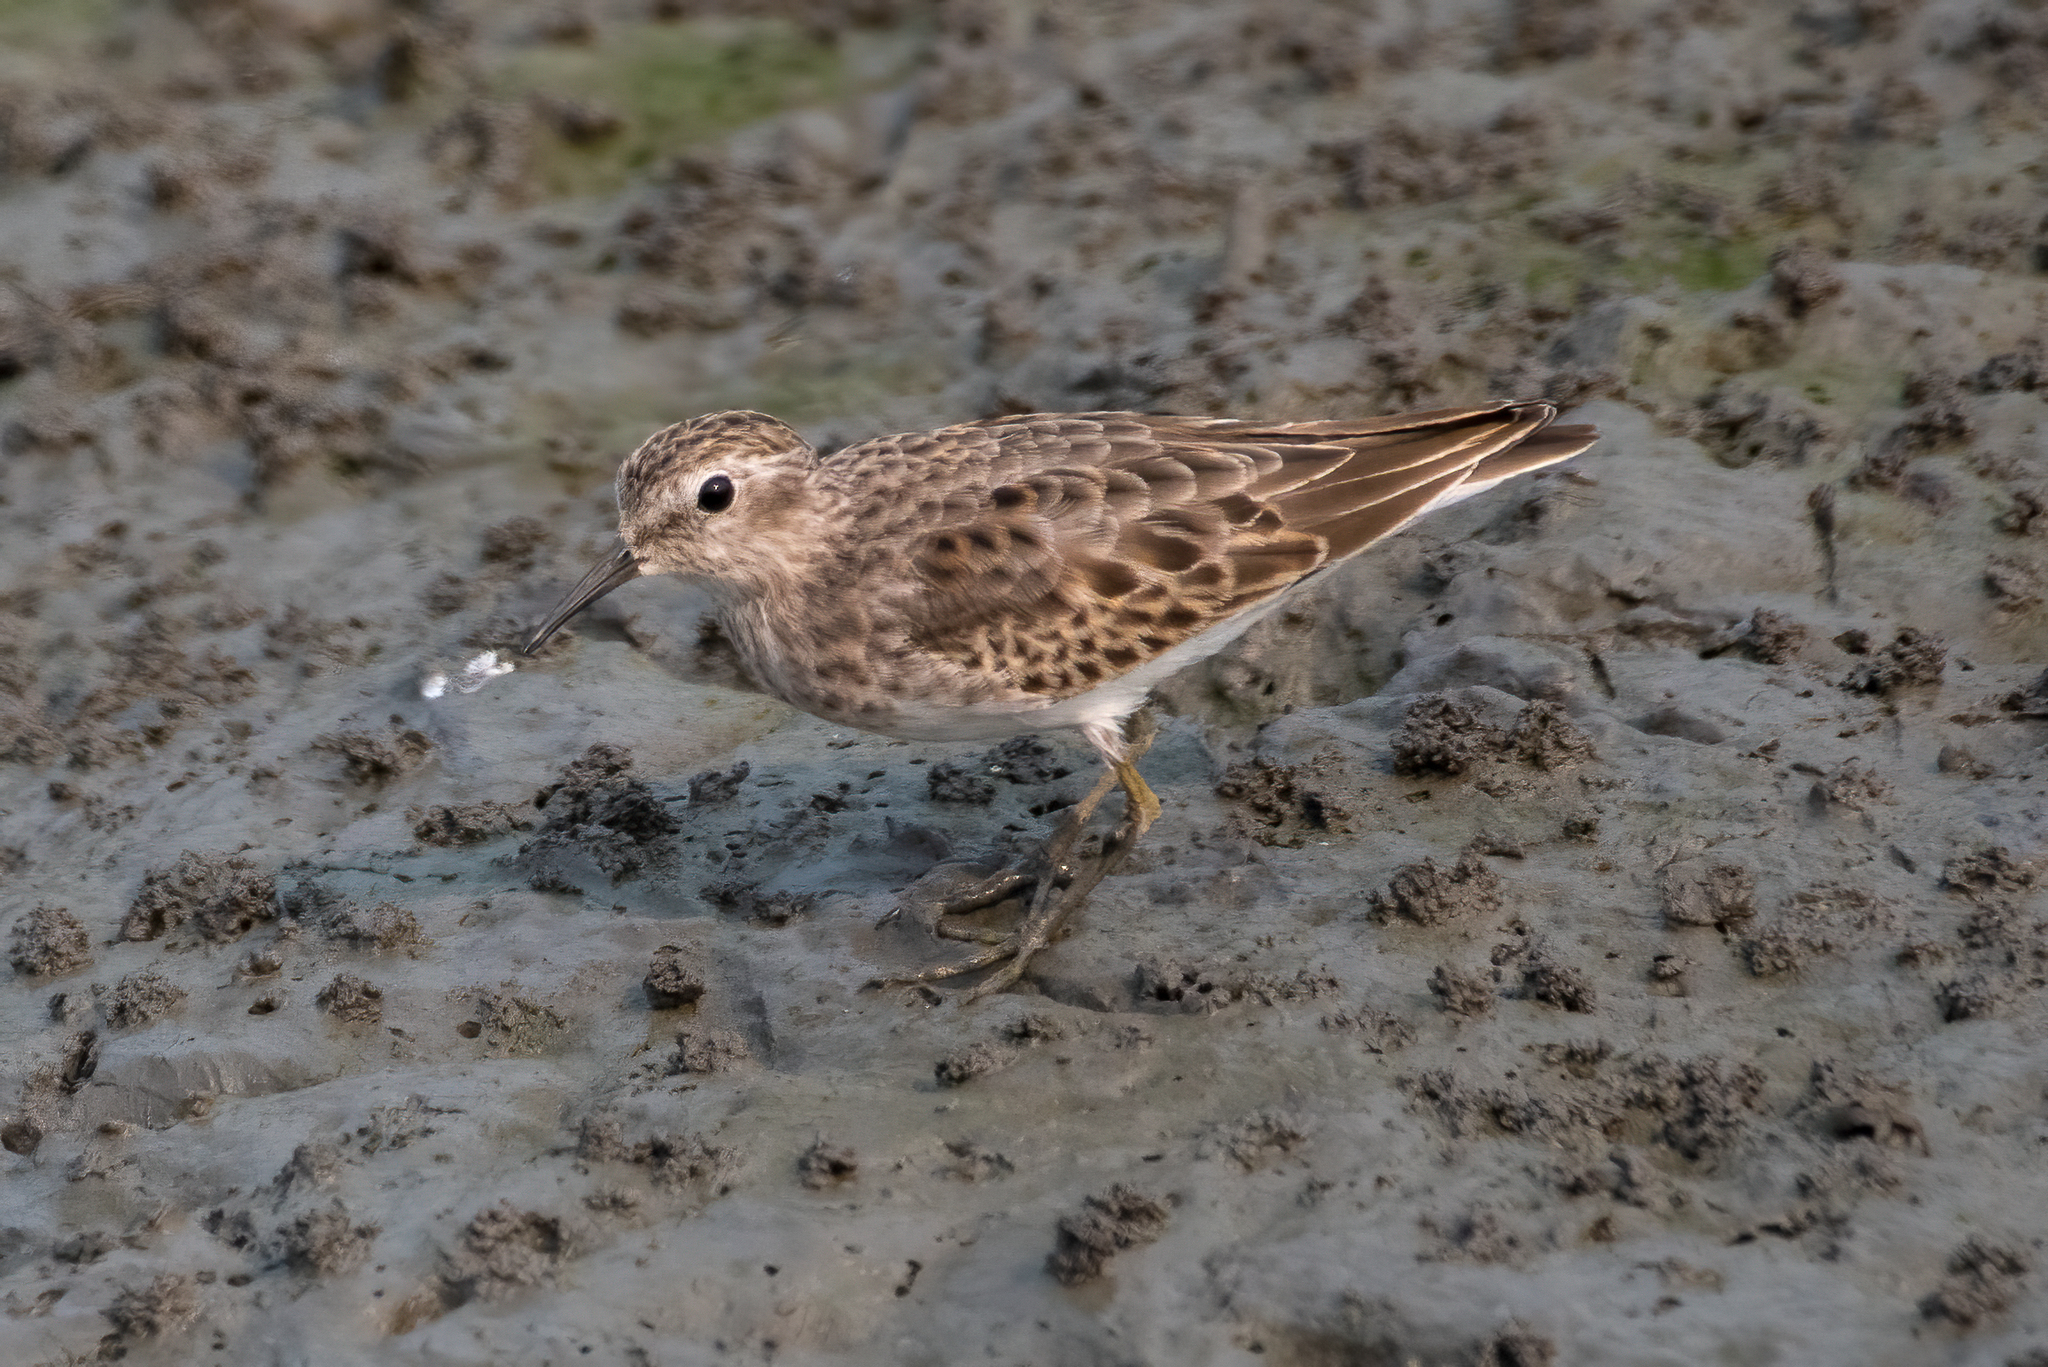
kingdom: Animalia
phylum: Chordata
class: Aves
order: Charadriiformes
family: Scolopacidae
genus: Calidris
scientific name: Calidris minutilla
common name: Least sandpiper
